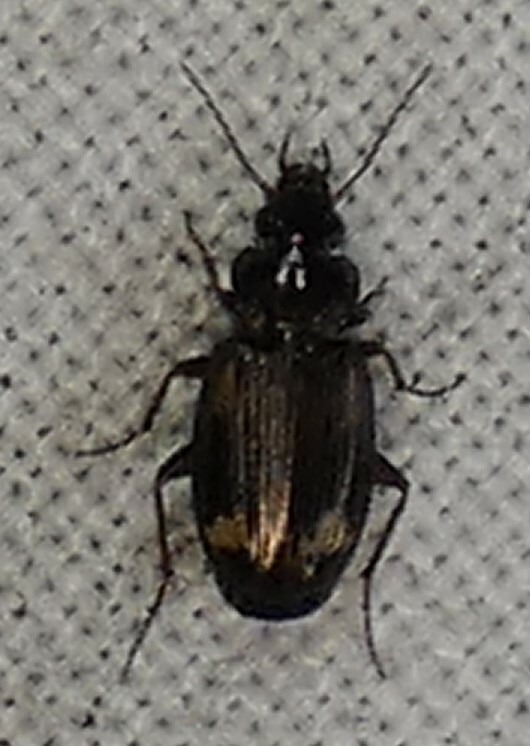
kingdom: Animalia
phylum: Arthropoda
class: Insecta
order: Coleoptera
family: Carabidae
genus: Tetragonoderus
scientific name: Tetragonoderus intersectus
